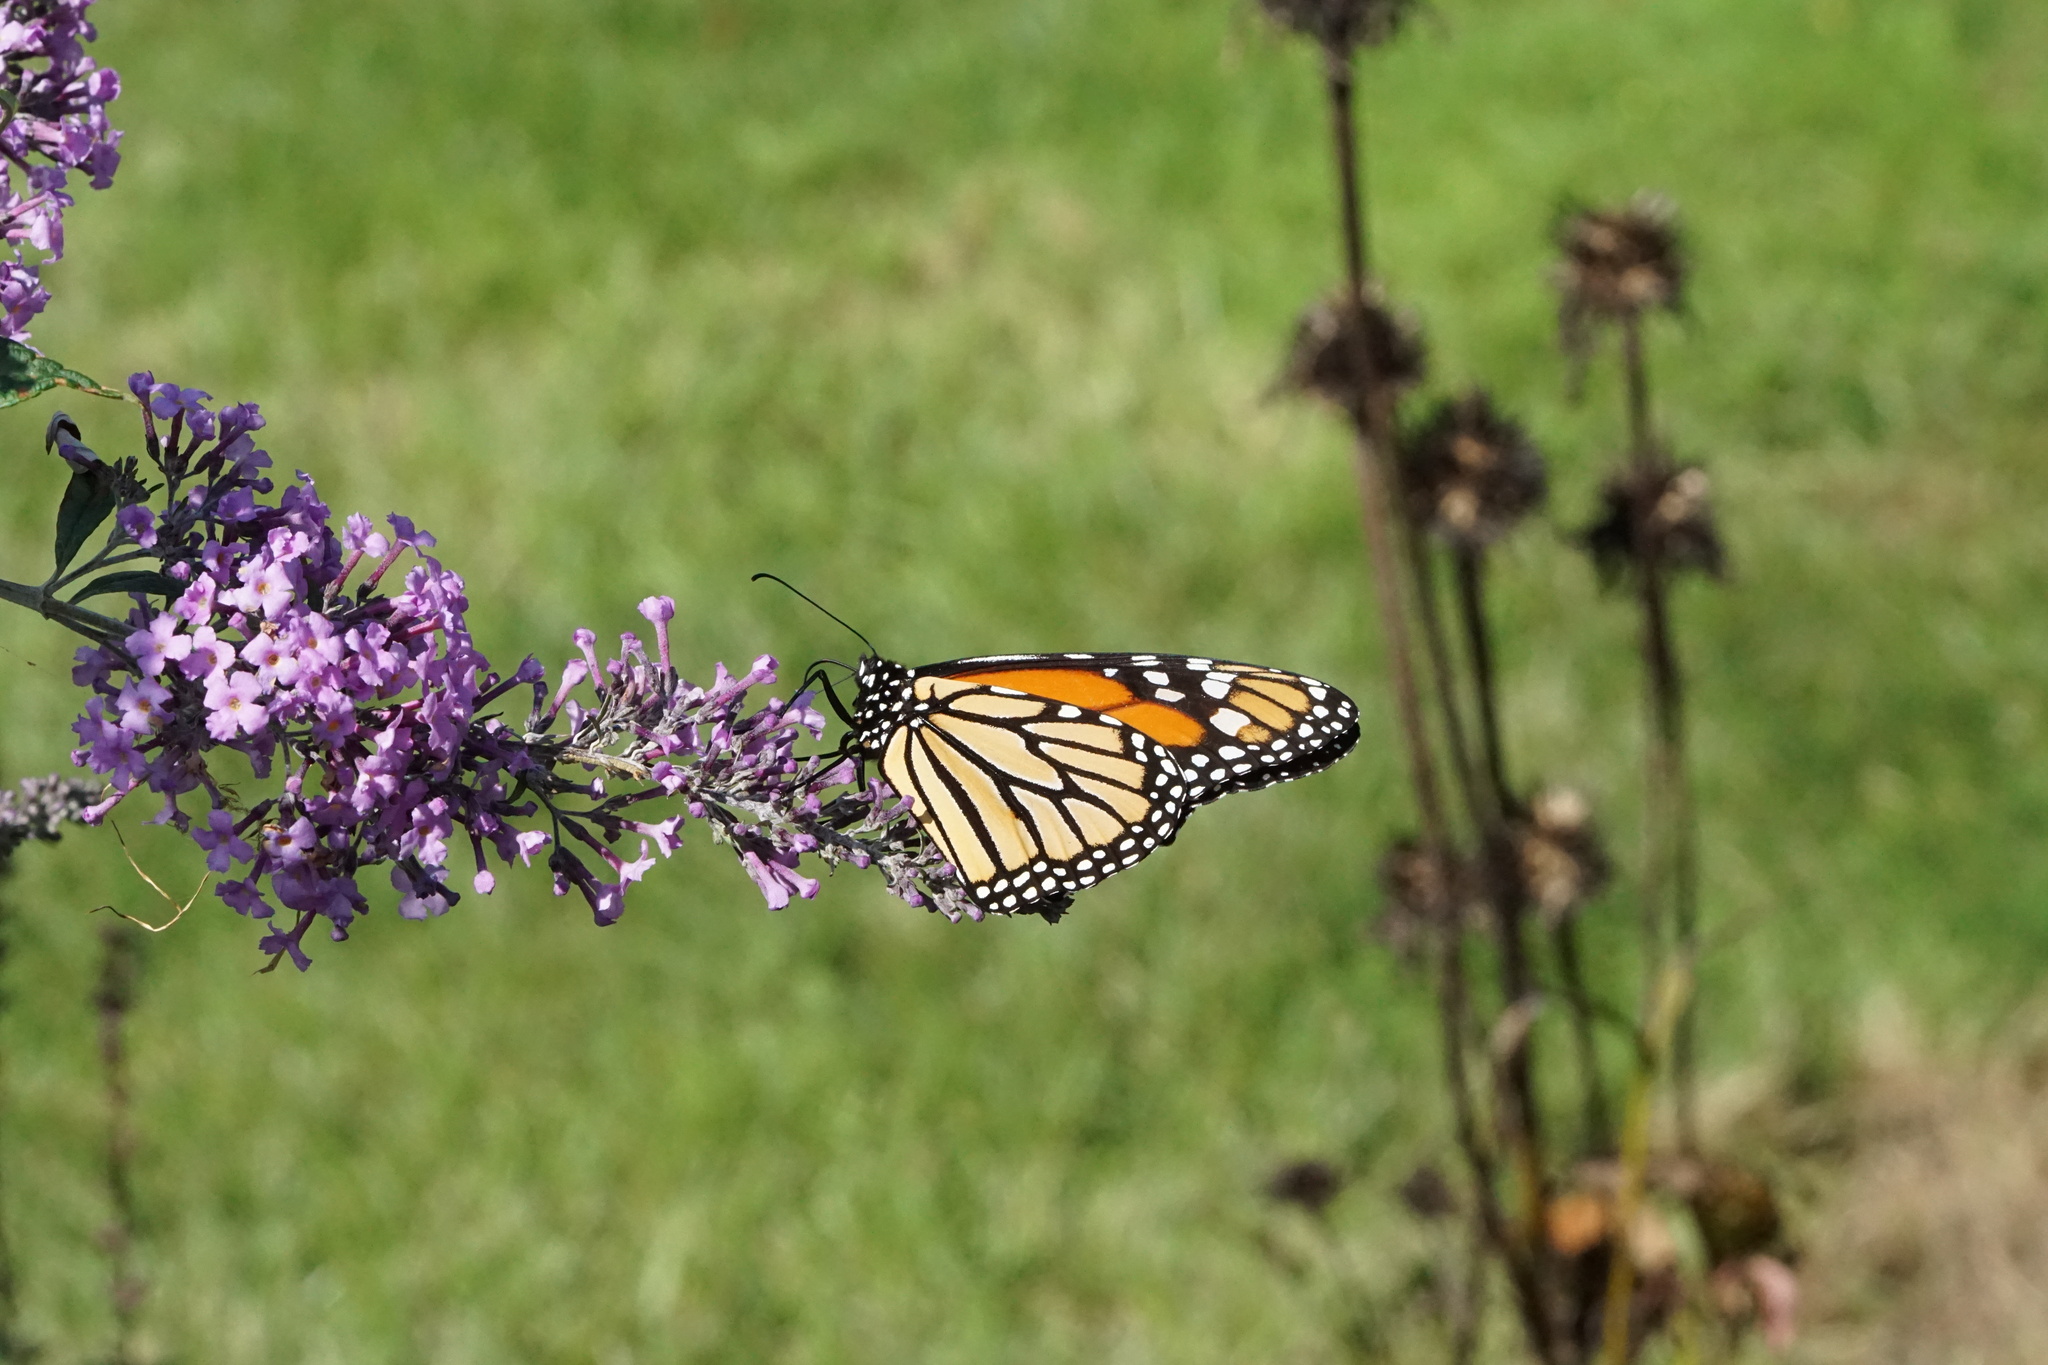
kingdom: Animalia
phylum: Arthropoda
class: Insecta
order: Lepidoptera
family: Nymphalidae
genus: Danaus
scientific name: Danaus plexippus
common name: Monarch
